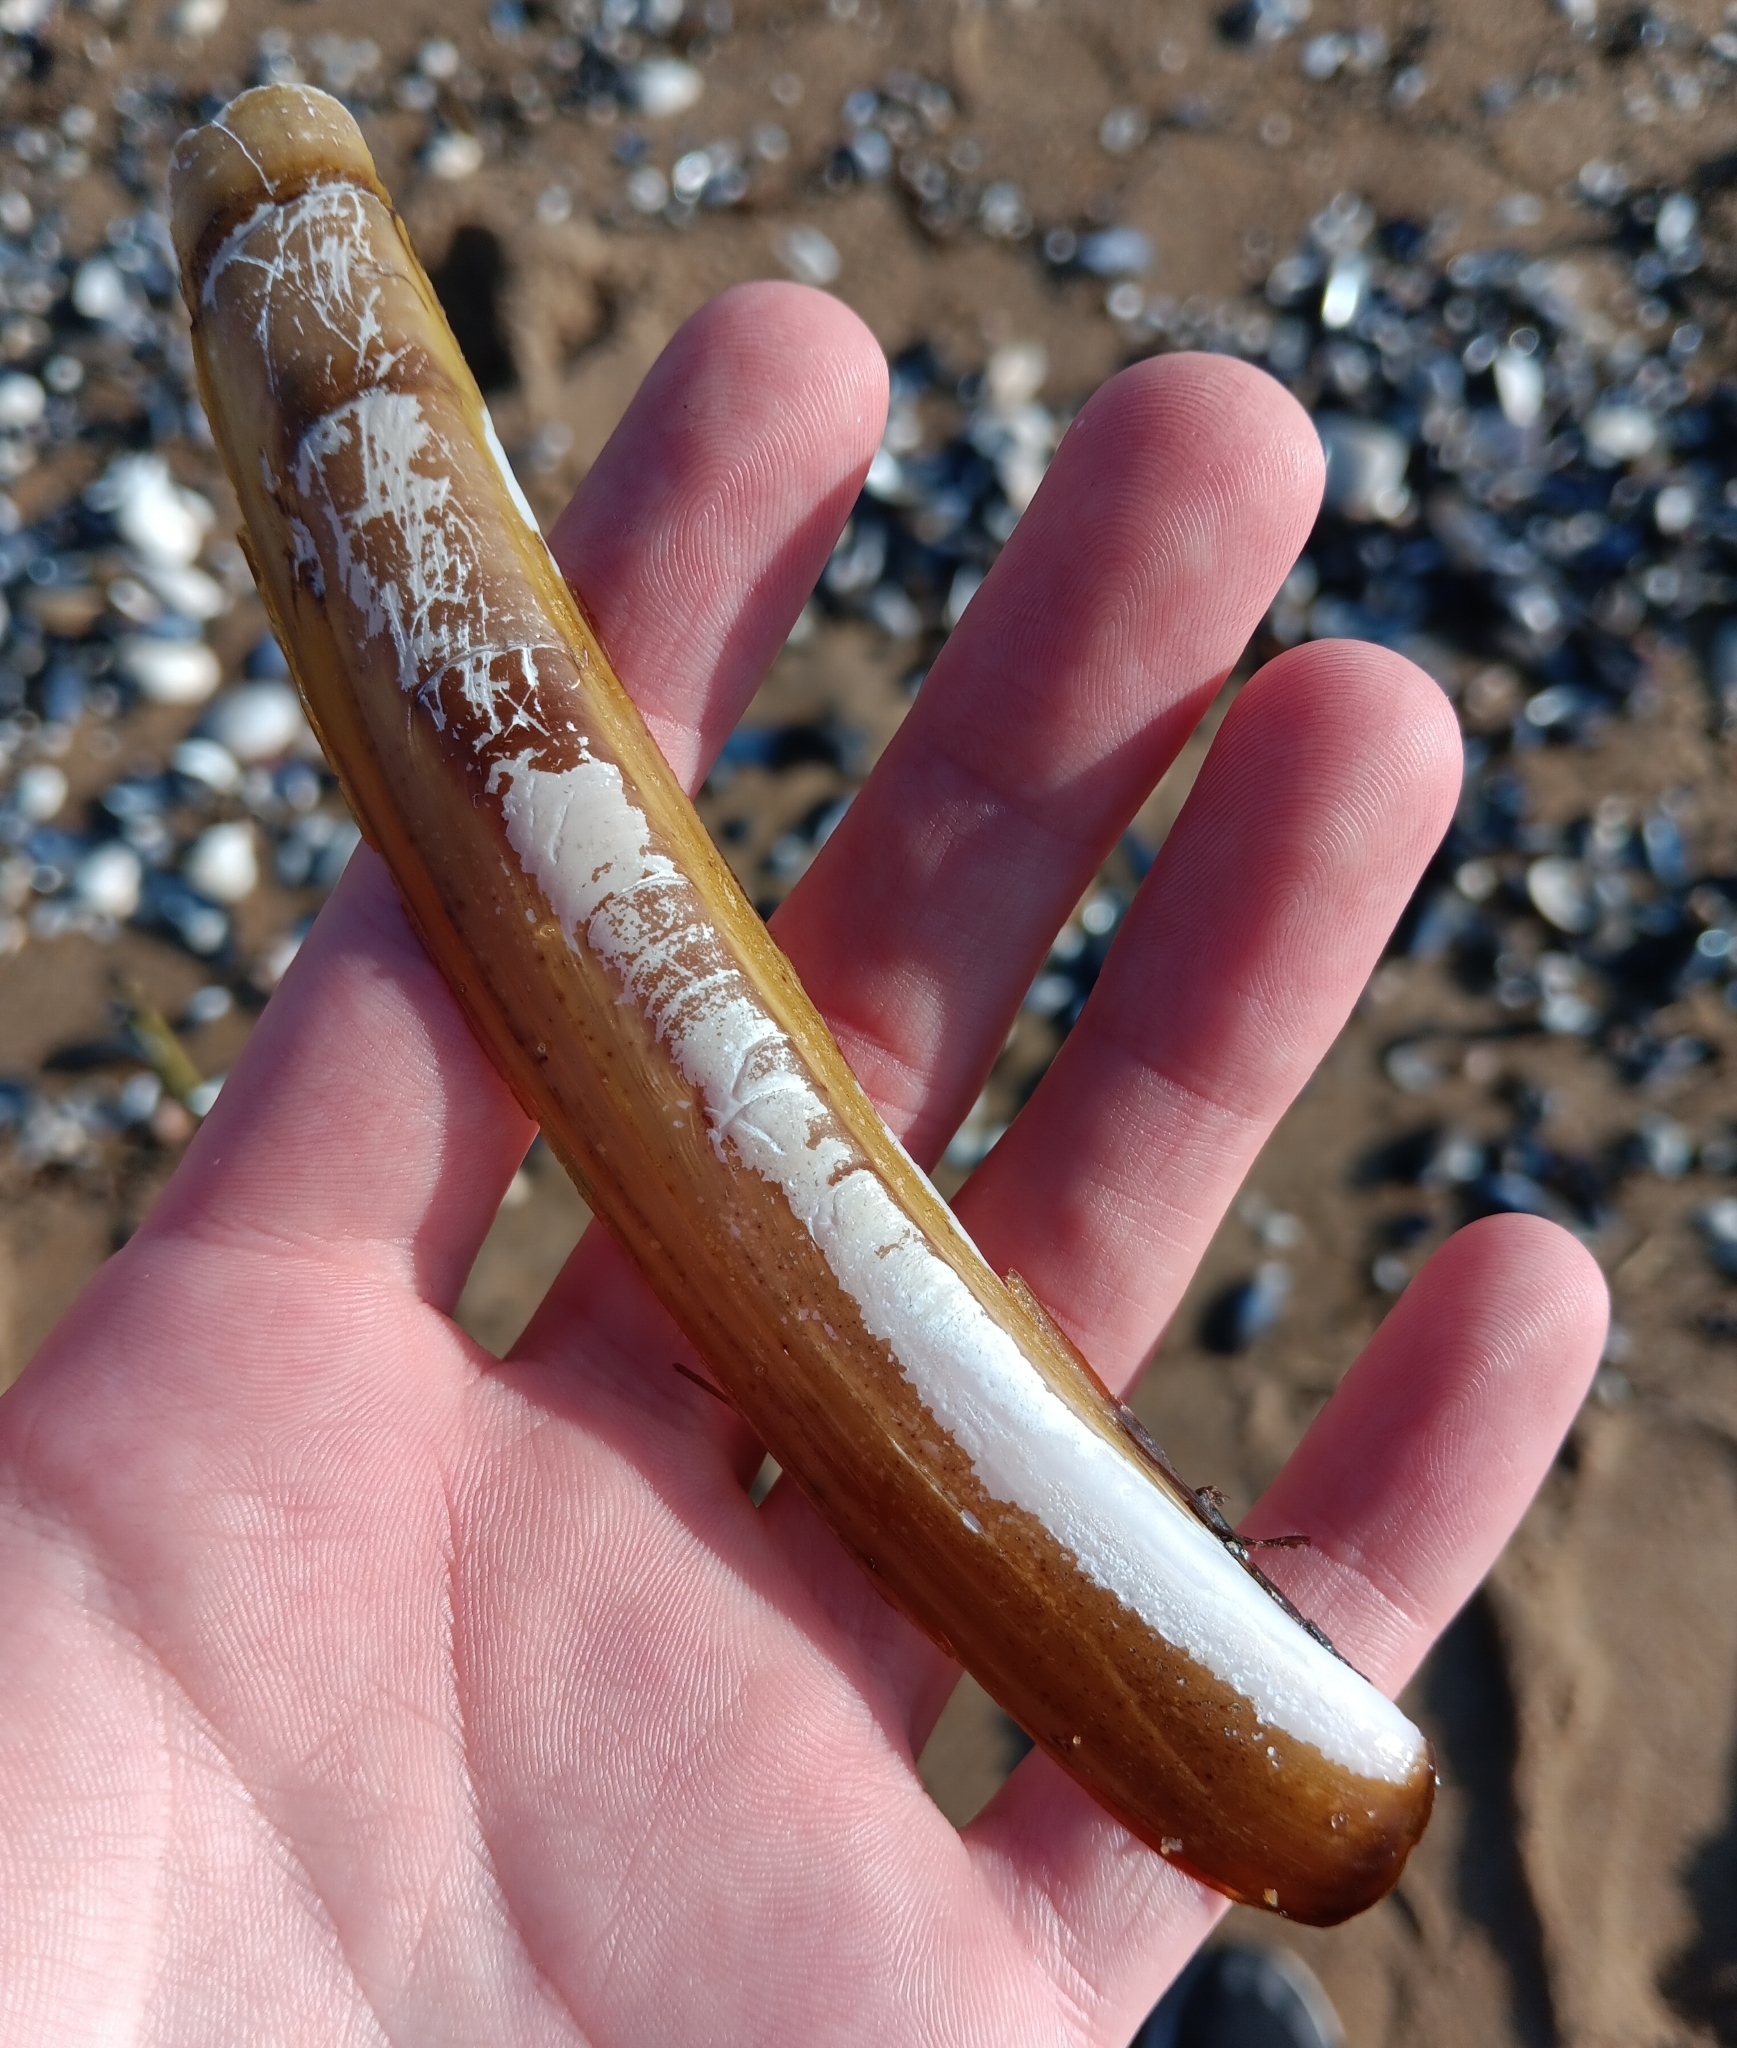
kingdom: Animalia
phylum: Mollusca
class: Bivalvia
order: Adapedonta
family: Pharidae
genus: Ensis
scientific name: Ensis leei
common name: American jack knife clam
